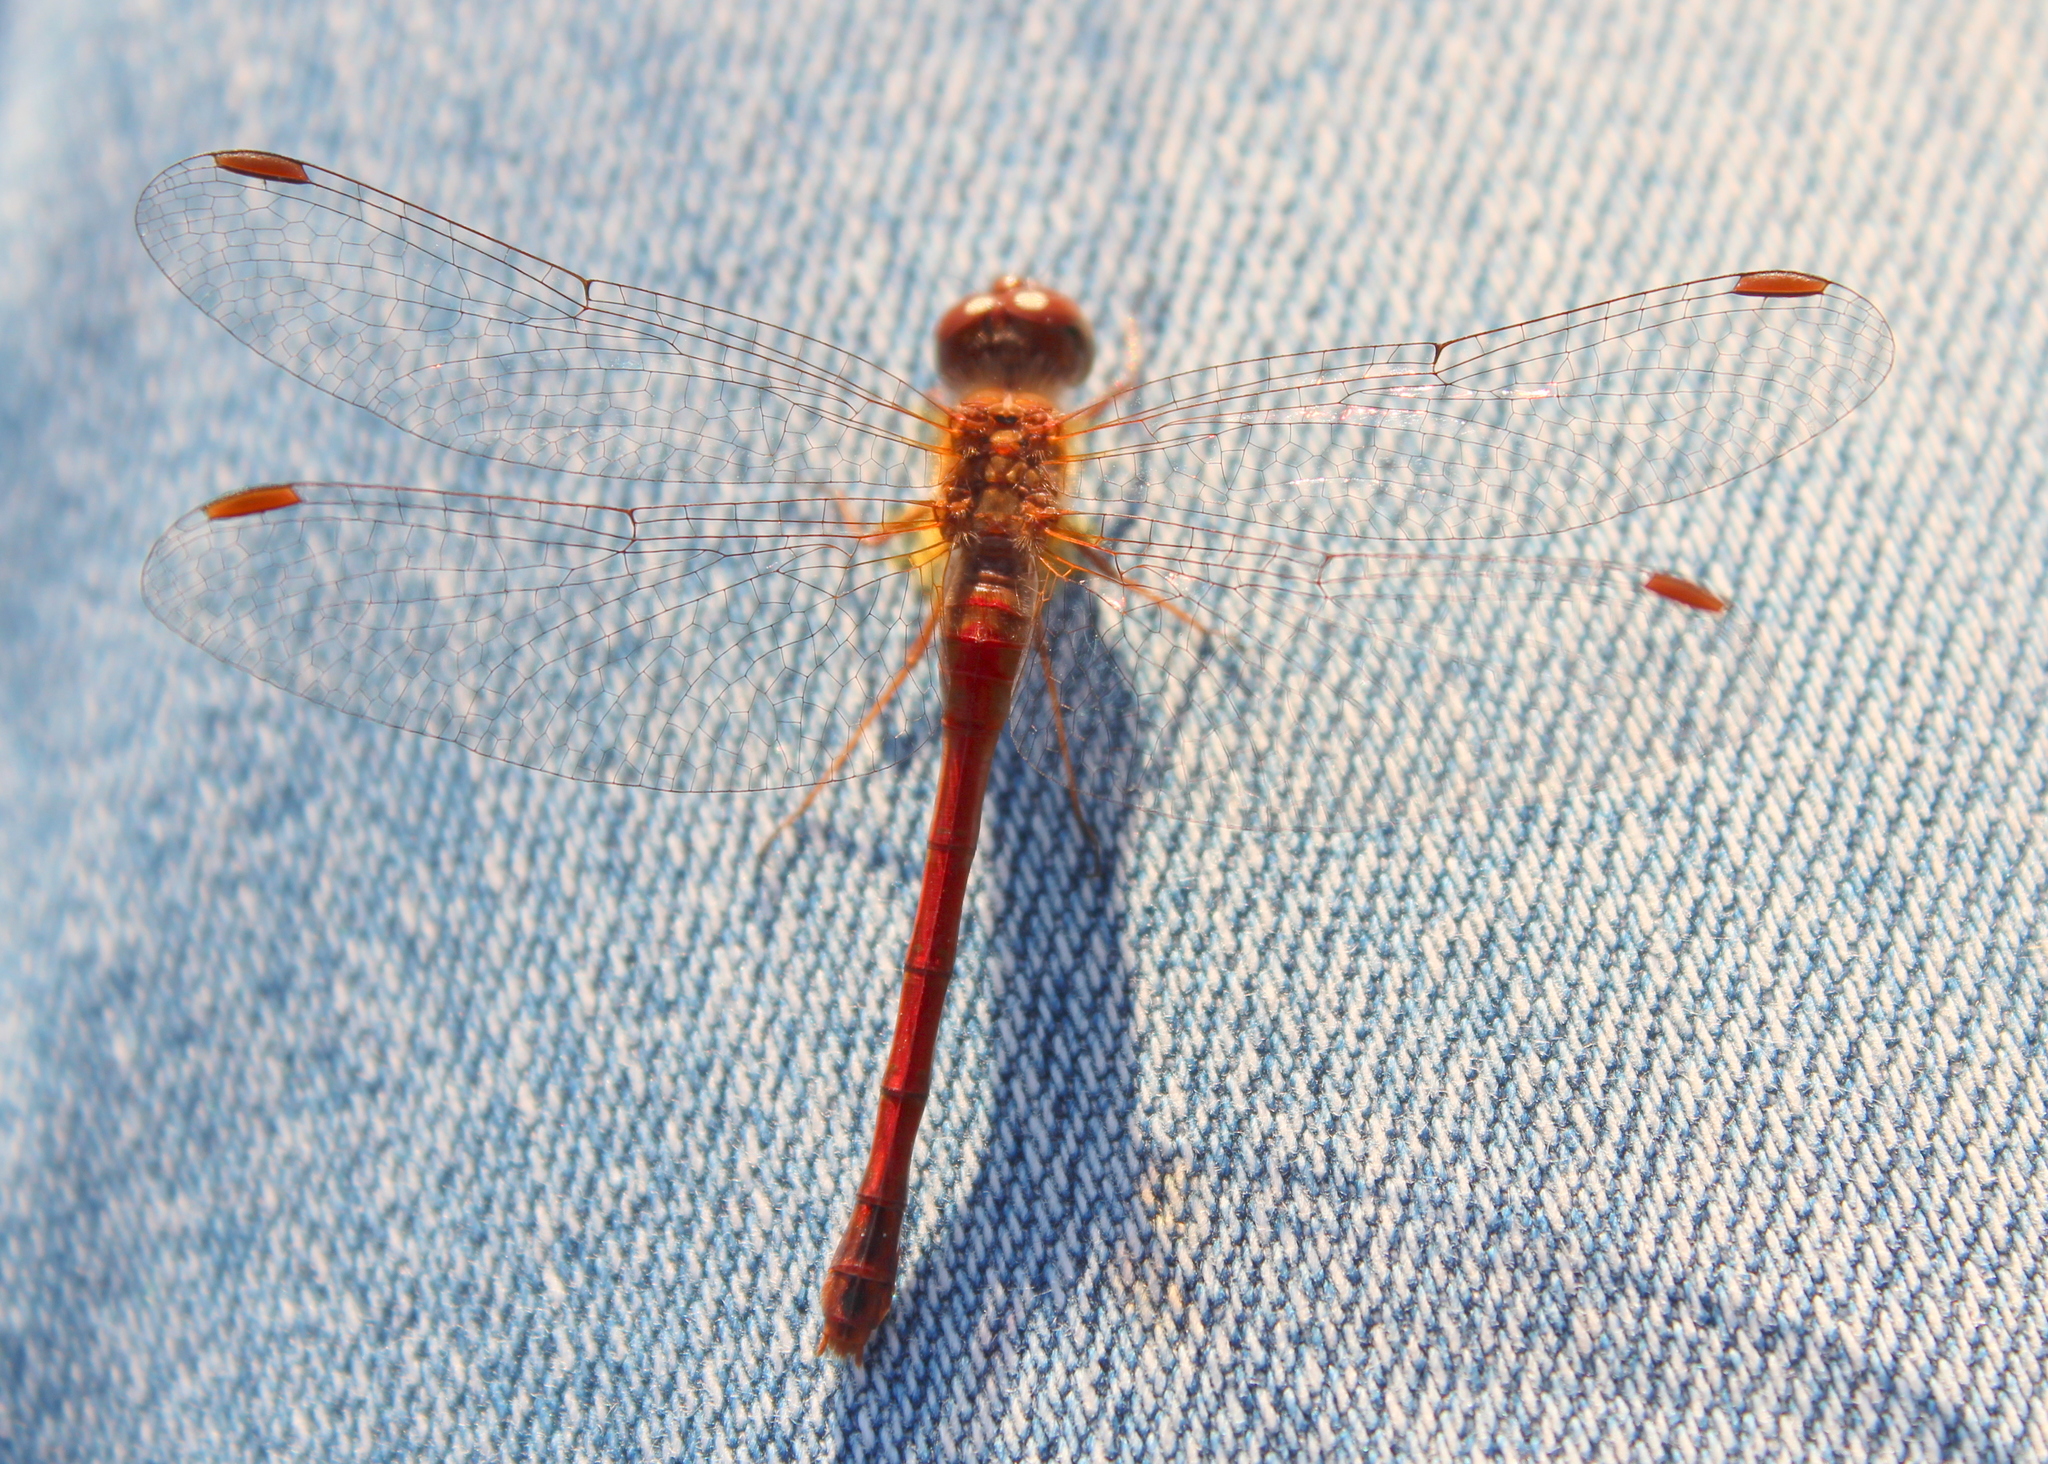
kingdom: Animalia
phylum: Arthropoda
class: Insecta
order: Odonata
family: Libellulidae
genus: Sympetrum
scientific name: Sympetrum vicinum
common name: Autumn meadowhawk
